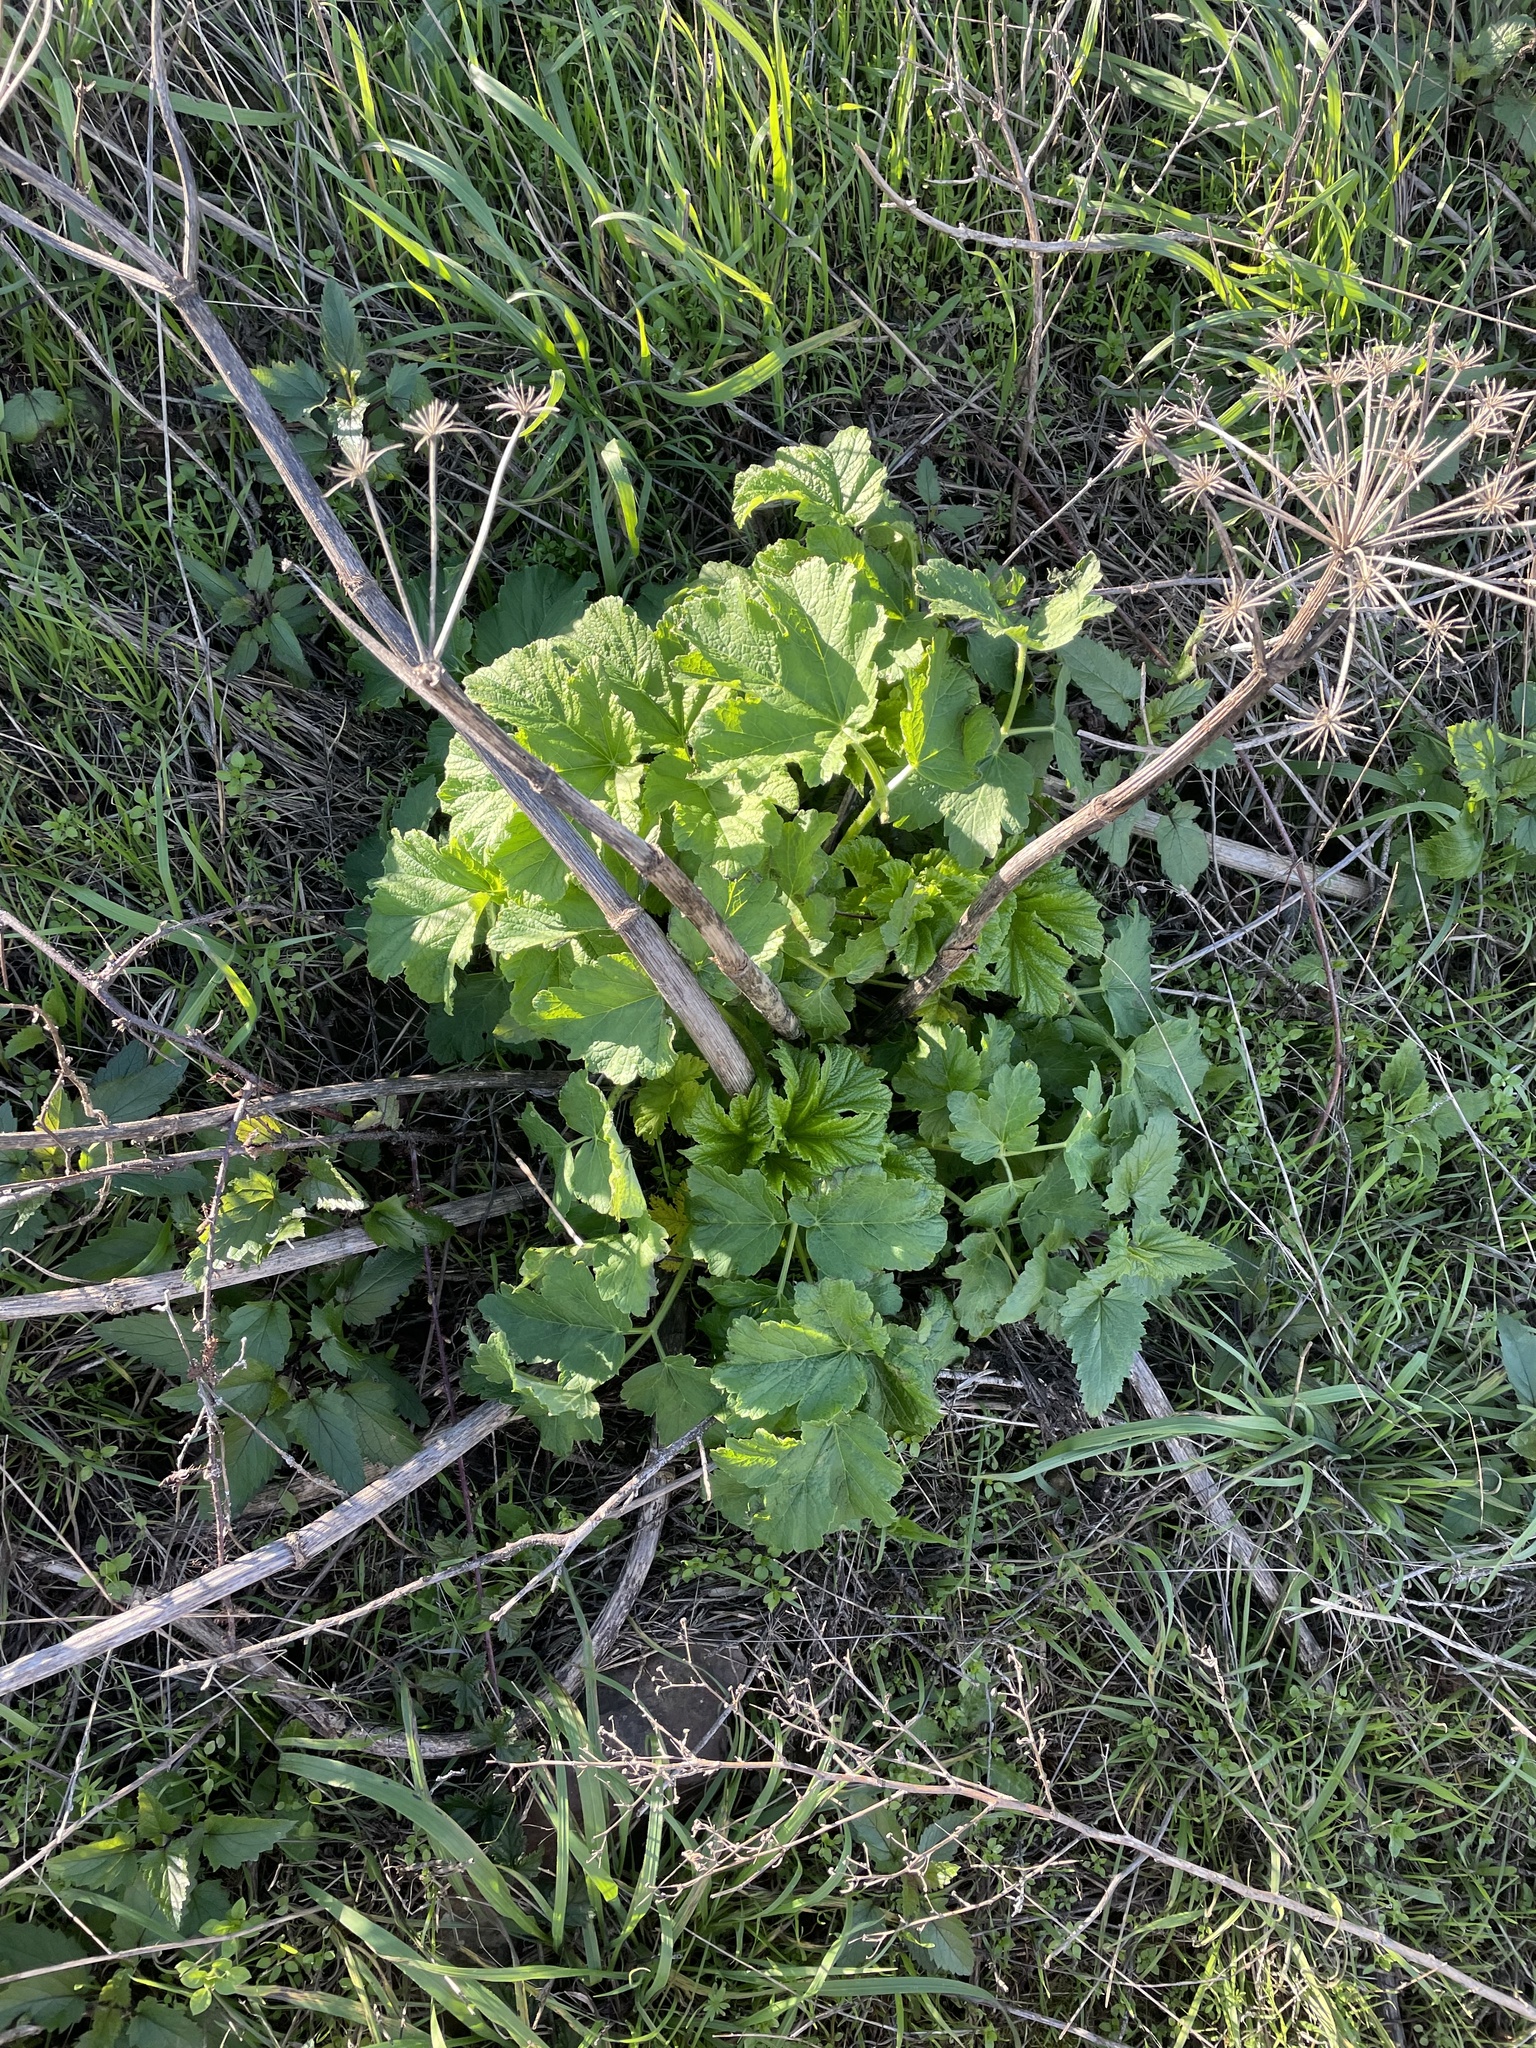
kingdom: Plantae
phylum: Tracheophyta
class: Magnoliopsida
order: Apiales
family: Apiaceae
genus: Heracleum
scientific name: Heracleum maximum
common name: American cow parsnip
